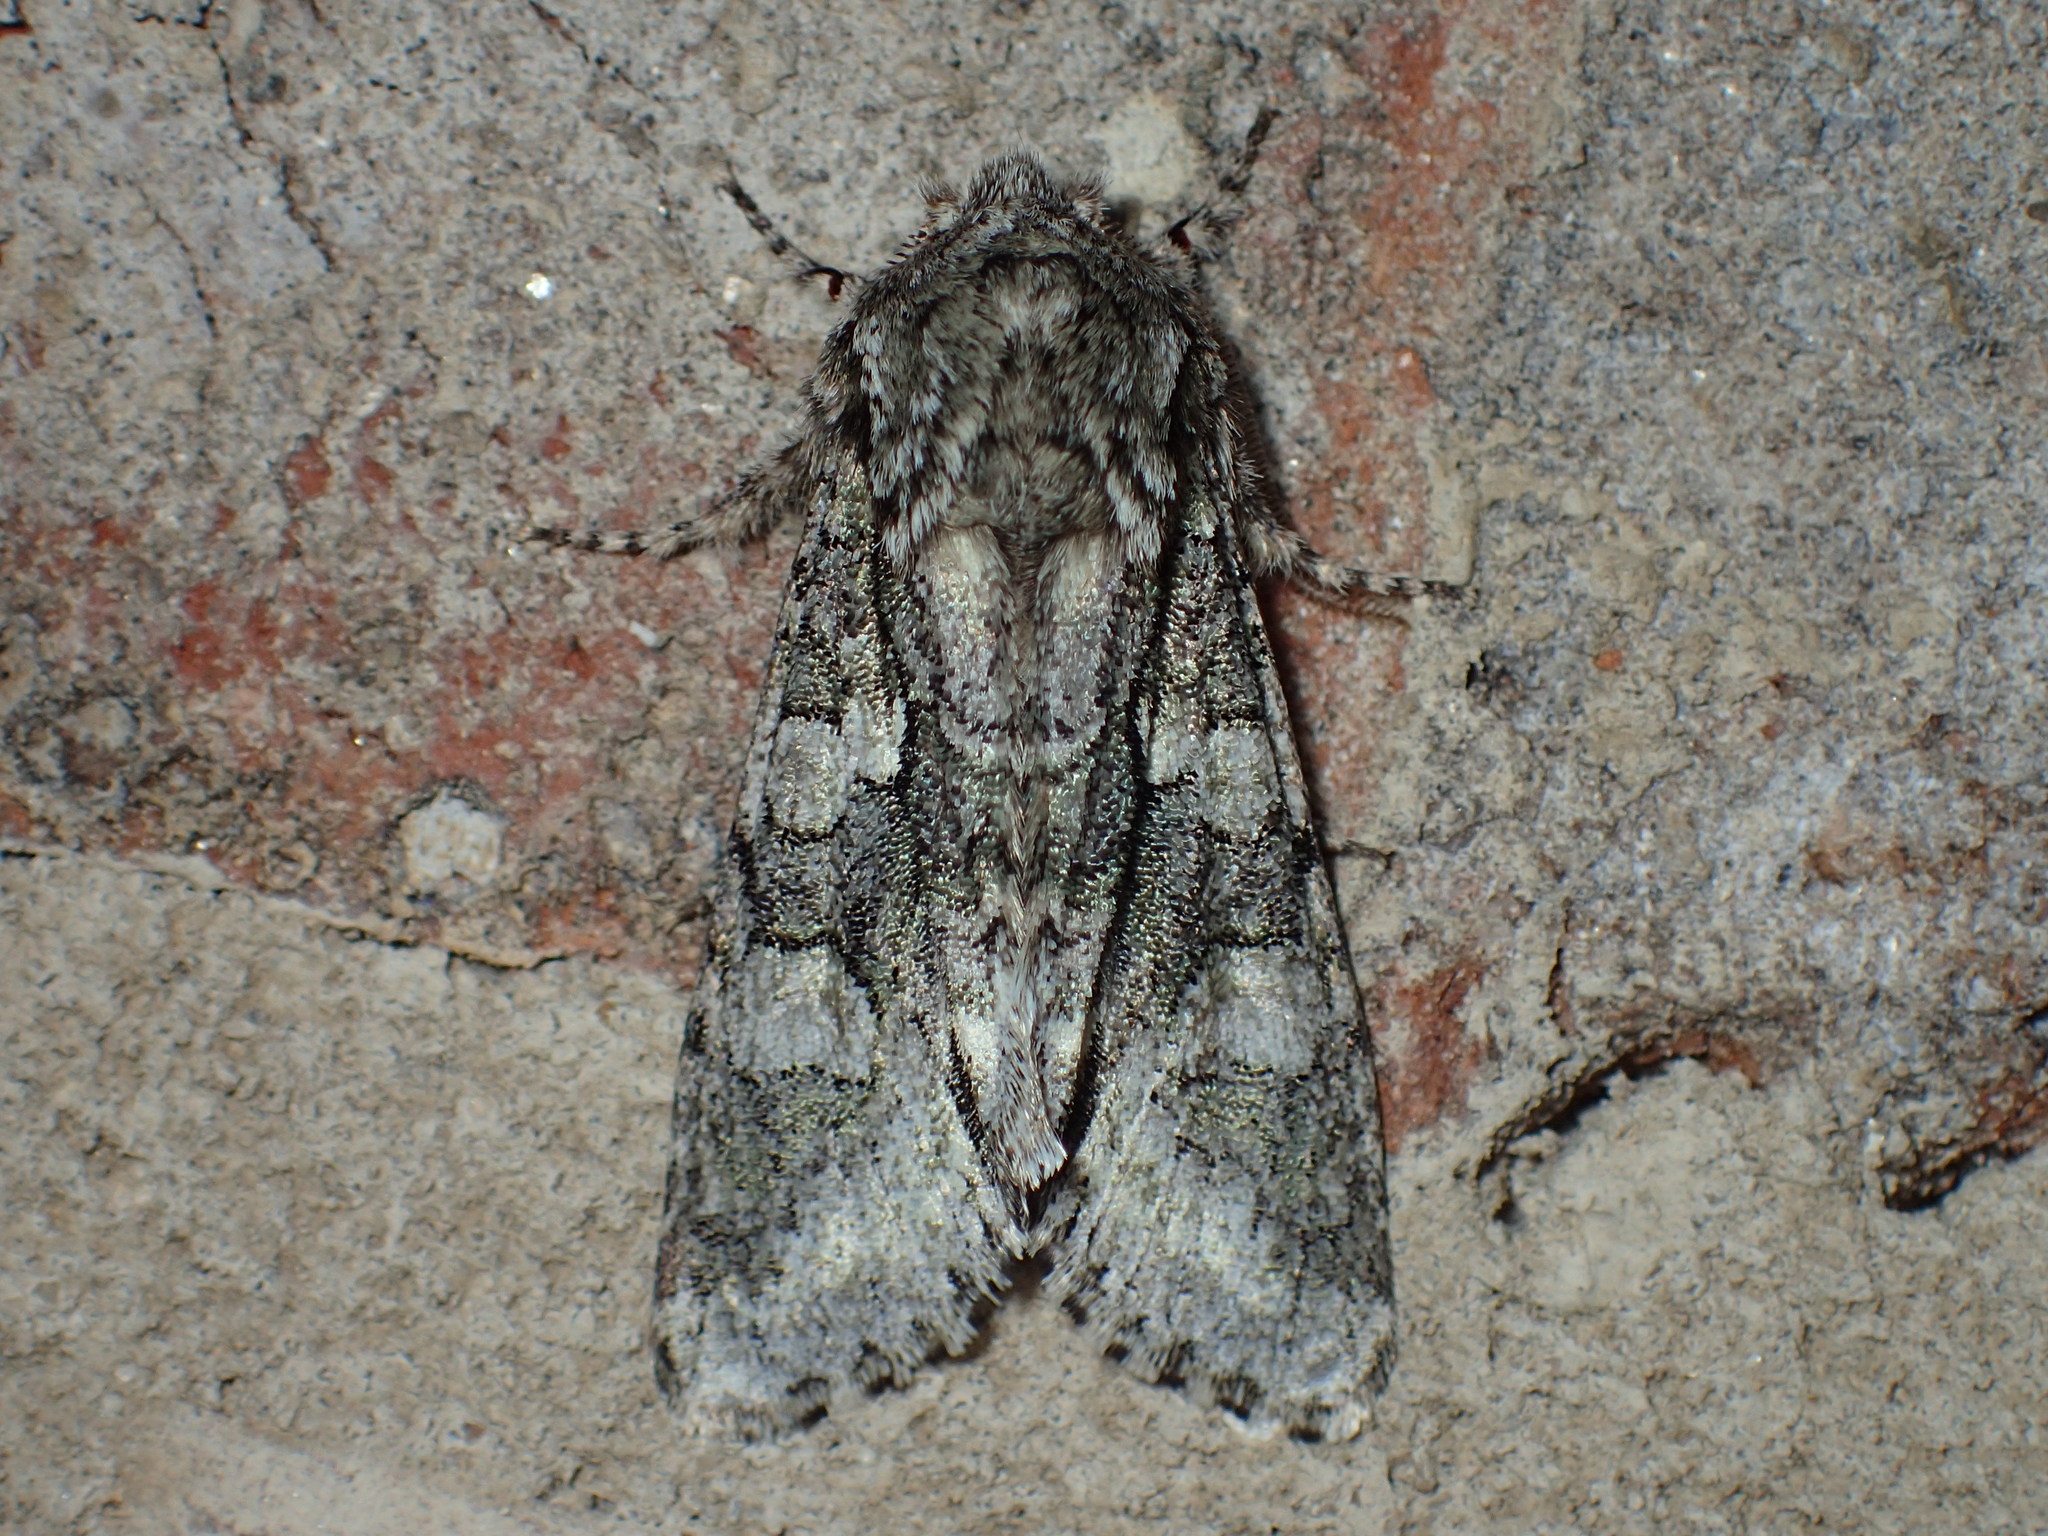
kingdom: Animalia
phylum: Arthropoda
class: Insecta
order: Lepidoptera
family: Noctuidae
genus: Psaphida
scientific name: Psaphida resumens
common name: Figure-eight sallow
